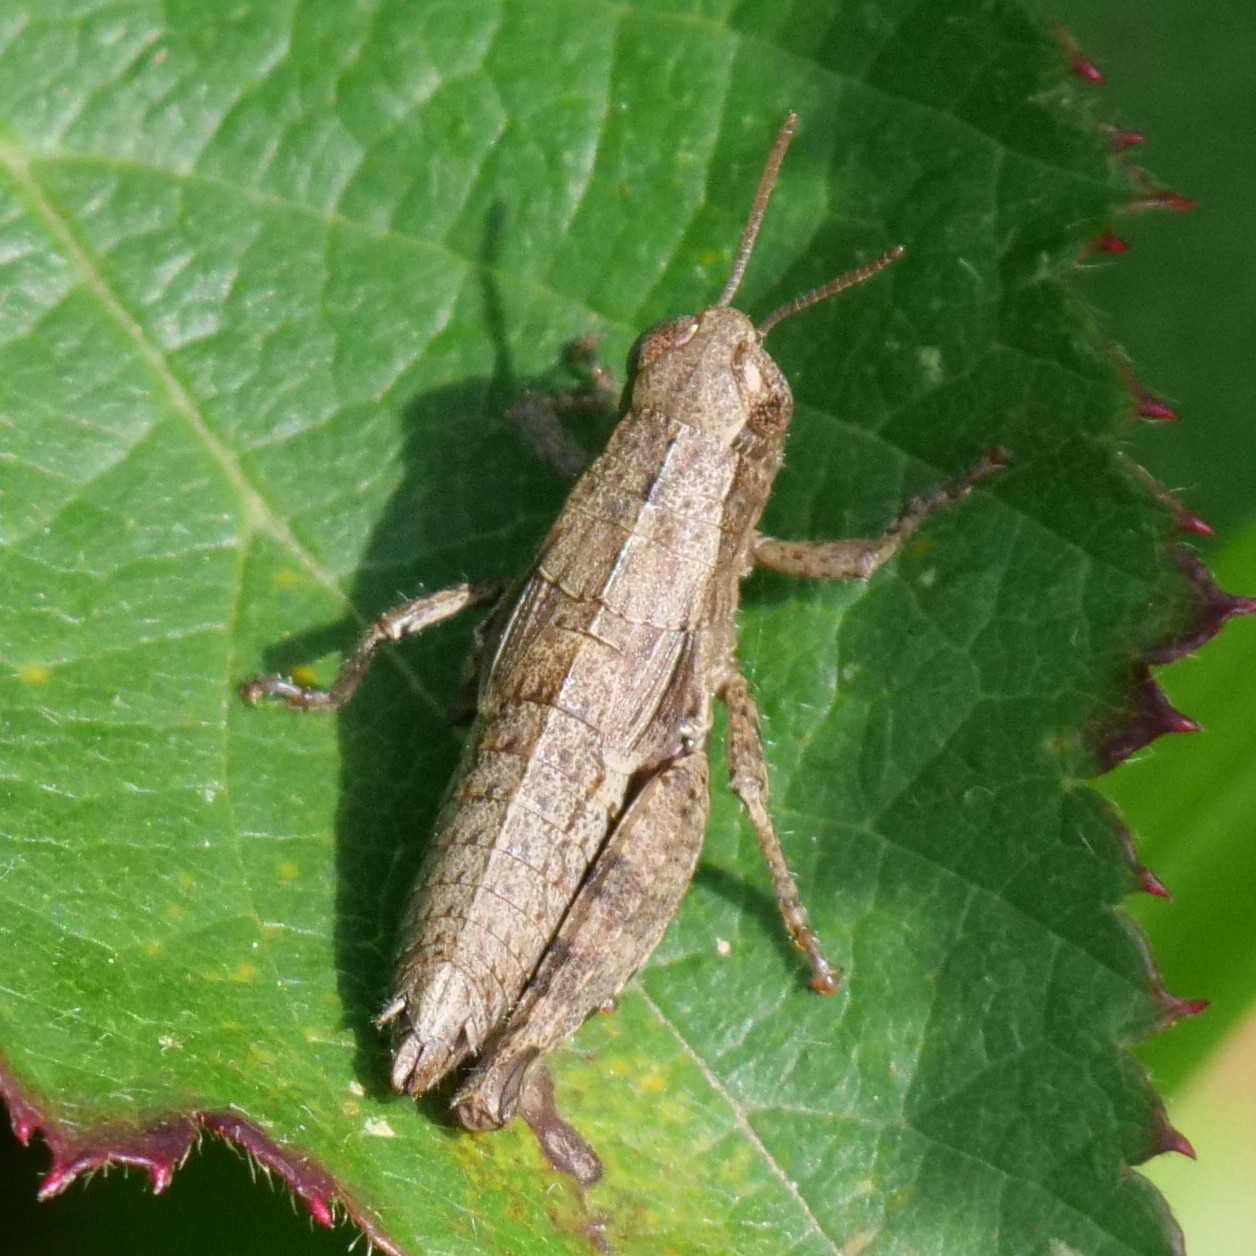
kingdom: Animalia
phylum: Arthropoda
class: Insecta
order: Orthoptera
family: Acrididae
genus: Pezotettix
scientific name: Pezotettix giornae
